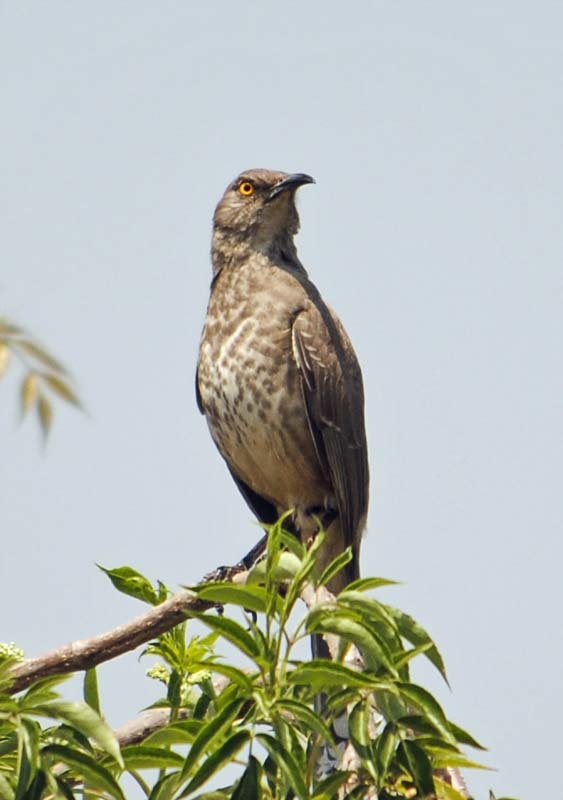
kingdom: Animalia
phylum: Chordata
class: Aves
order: Passeriformes
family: Mimidae
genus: Toxostoma
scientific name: Toxostoma curvirostre
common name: Curve-billed thrasher
